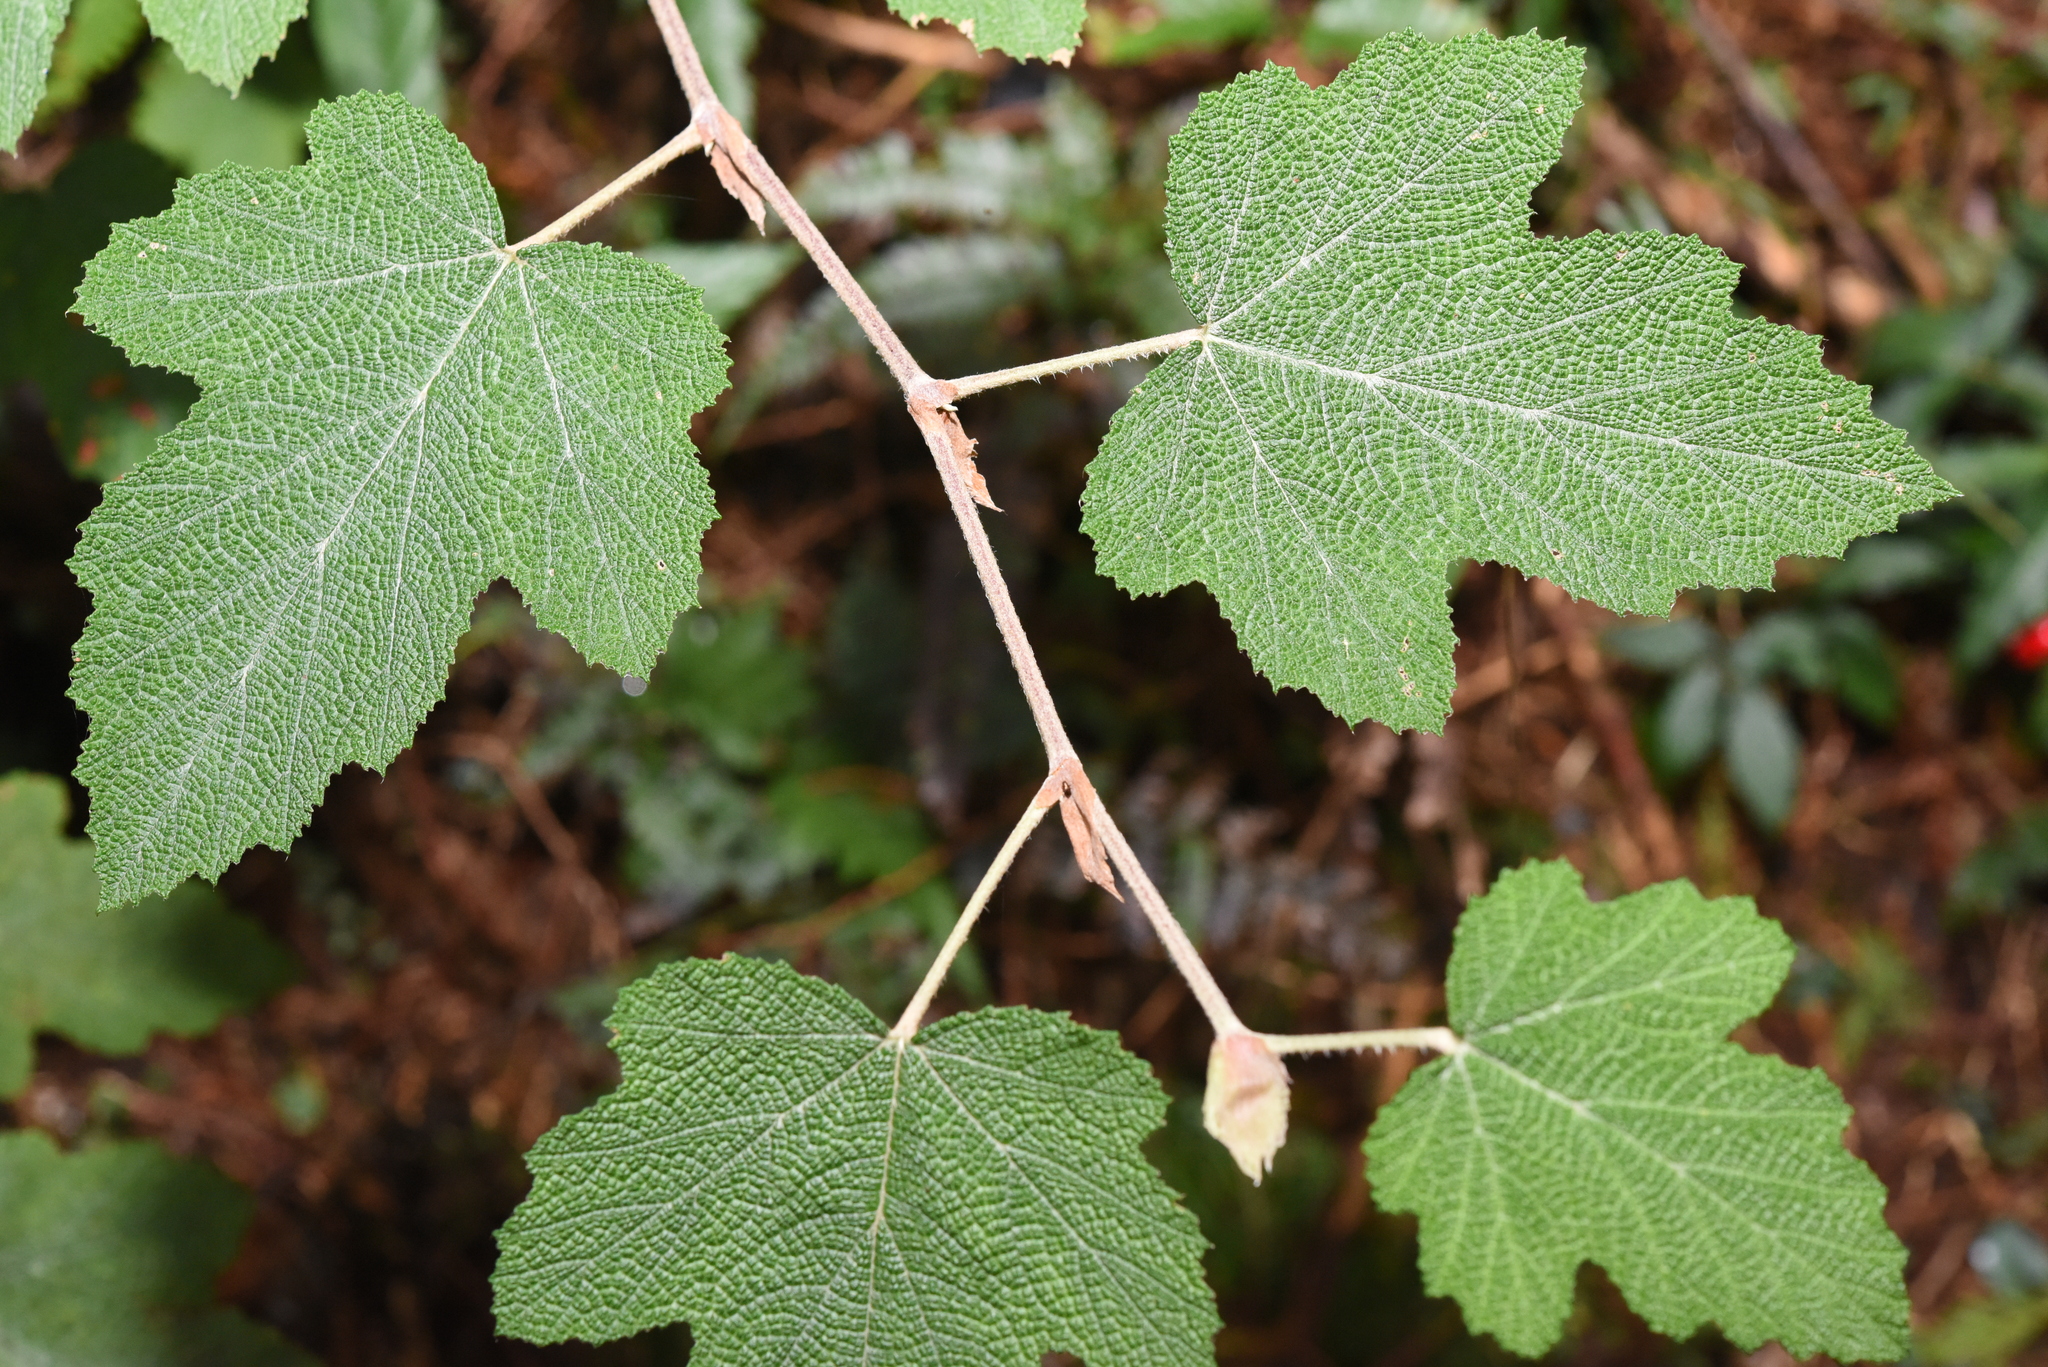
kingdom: Plantae
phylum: Tracheophyta
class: Magnoliopsida
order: Rosales
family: Rosaceae
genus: Rubus
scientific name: Rubus formosensis
